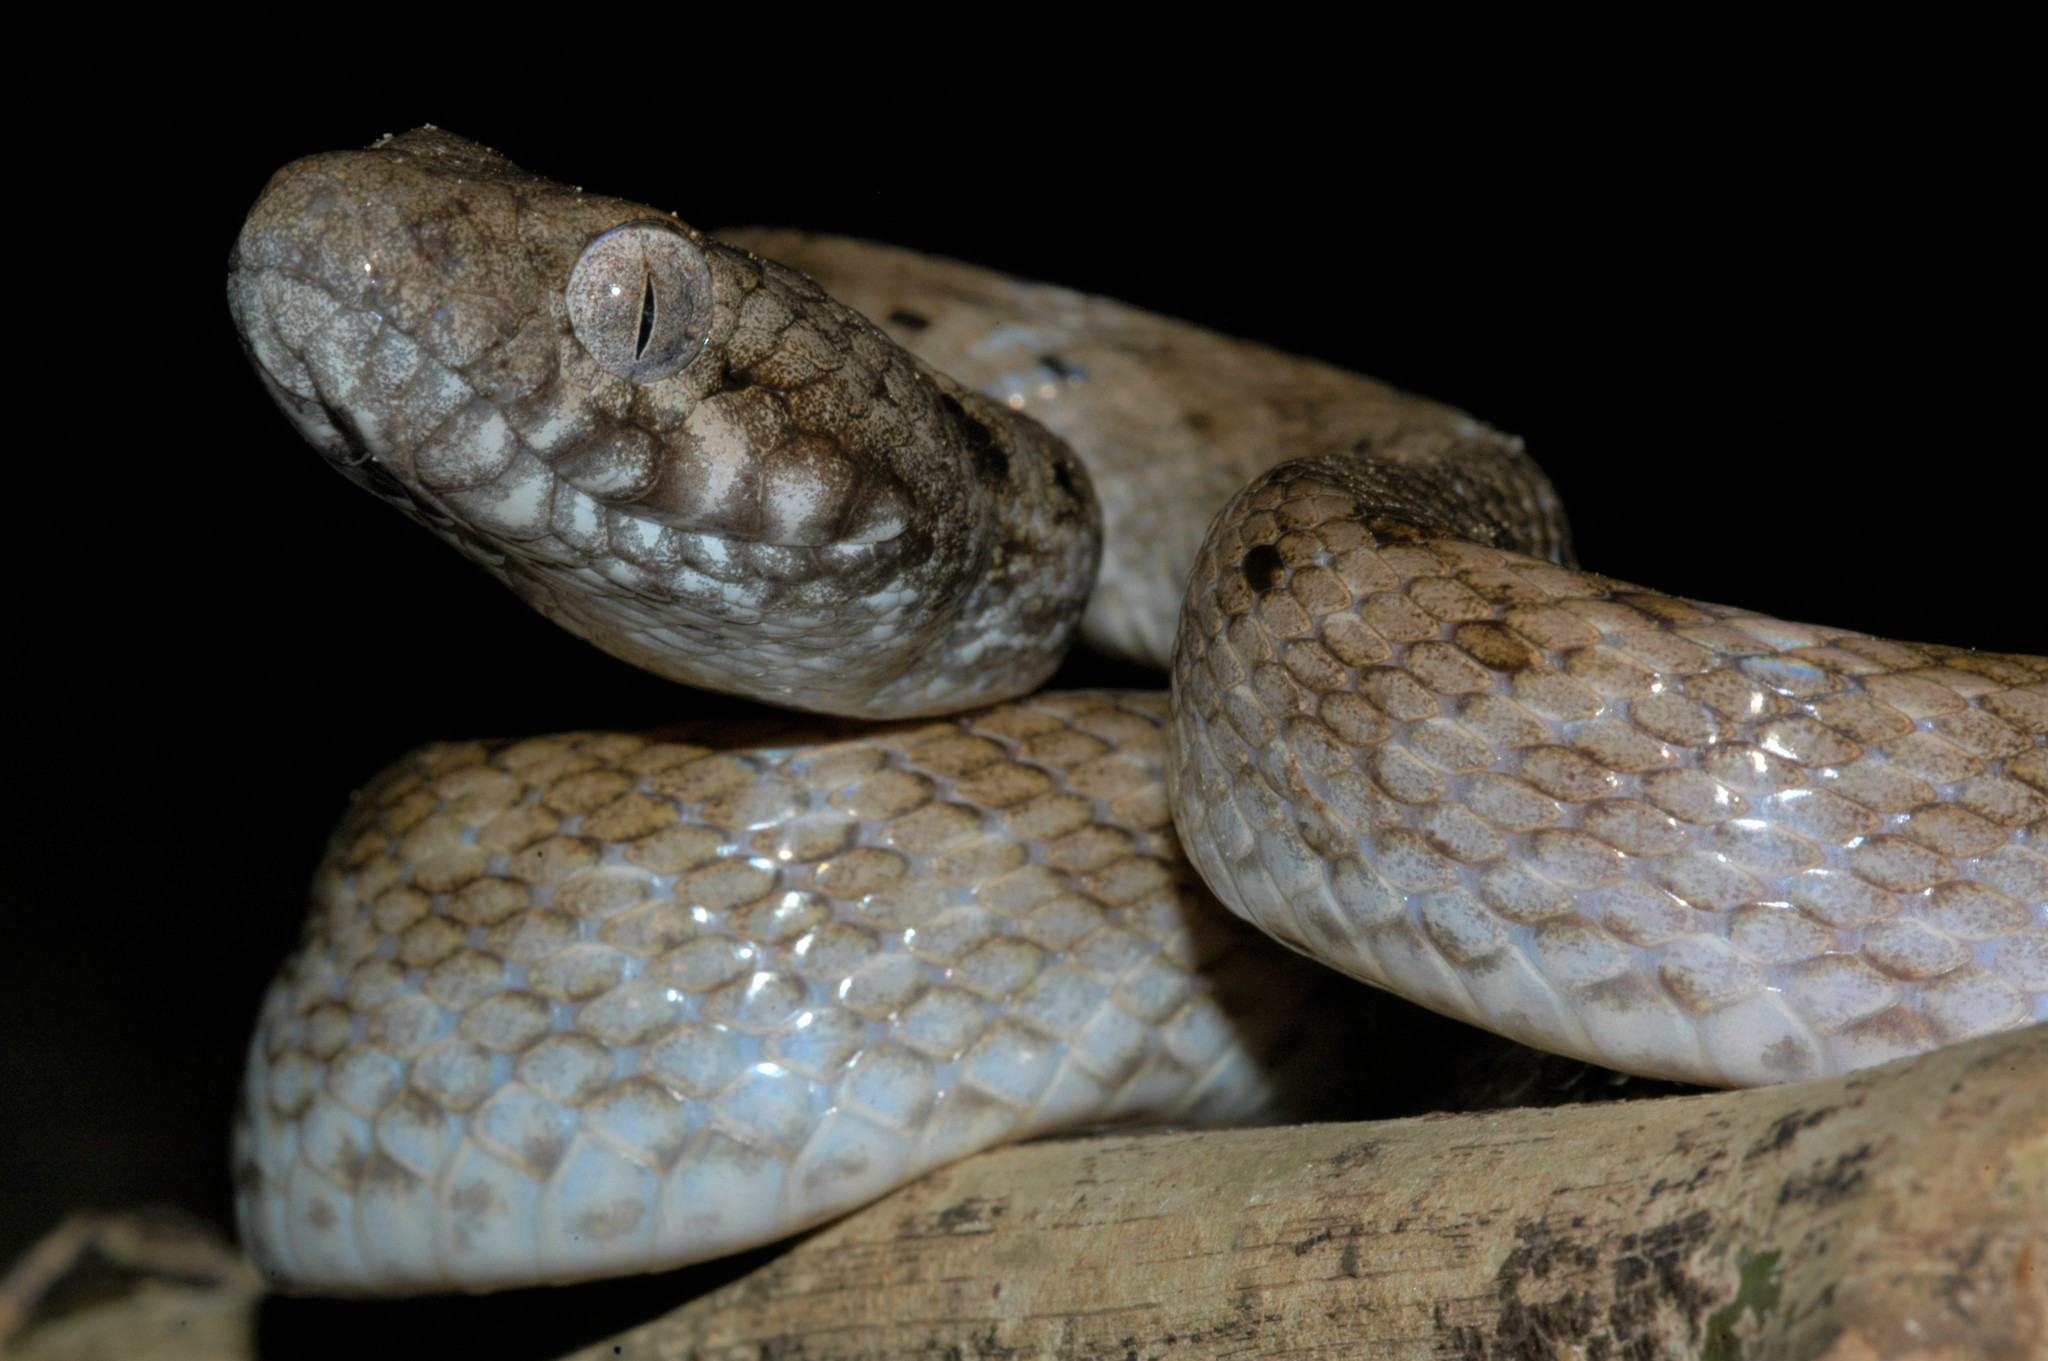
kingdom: Animalia
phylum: Chordata
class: Squamata
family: Pseudoxyrhophiidae
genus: Madagascarophis
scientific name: Madagascarophis colubrinus
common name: Madagascar night snake
